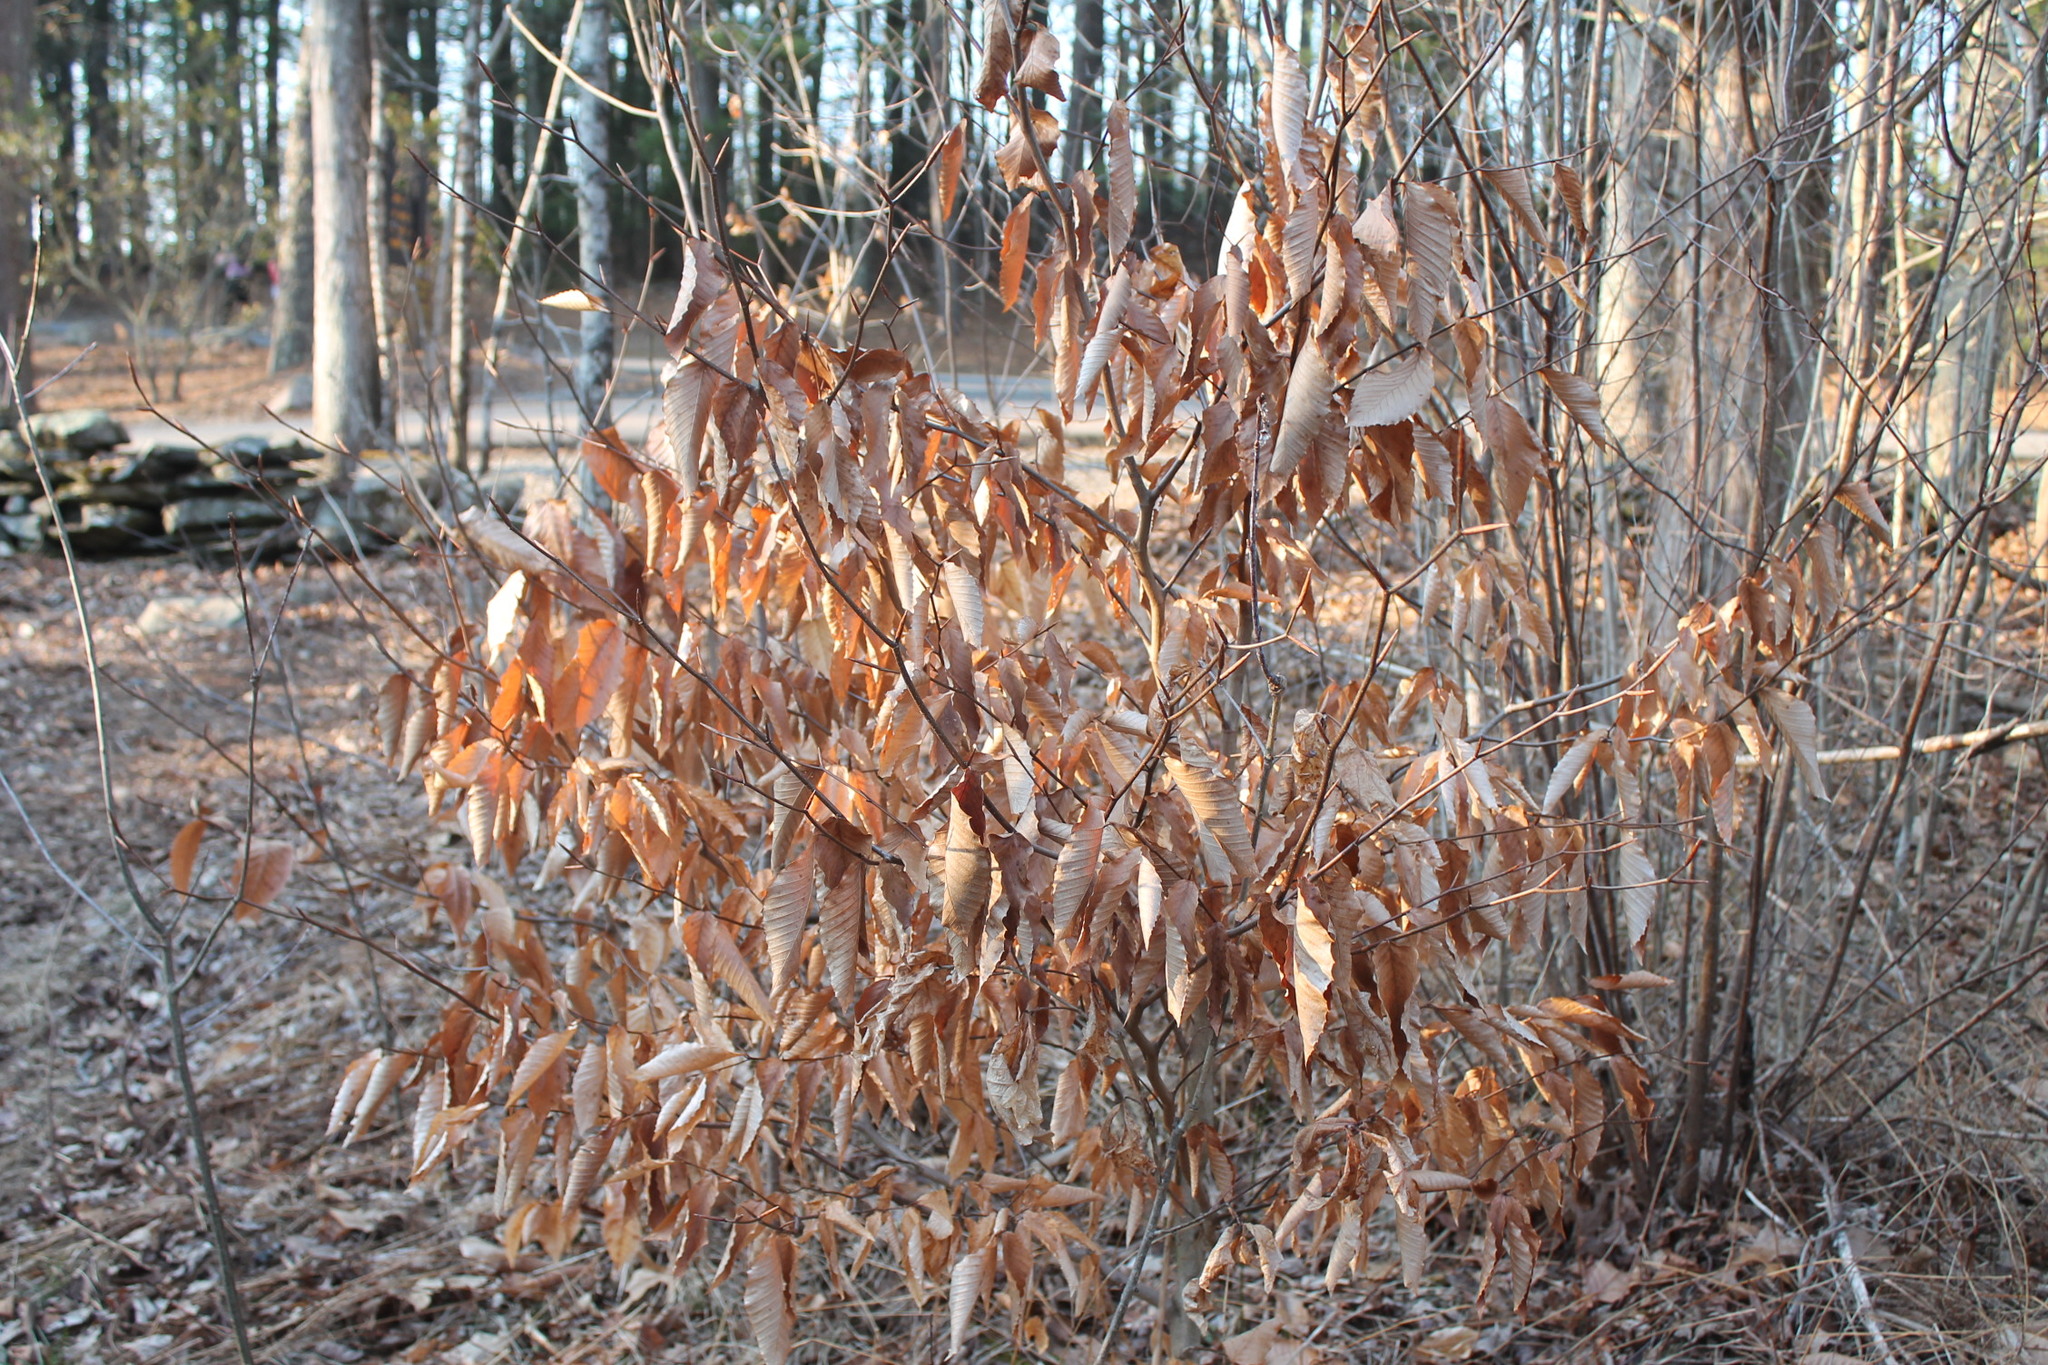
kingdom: Plantae
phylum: Tracheophyta
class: Magnoliopsida
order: Fagales
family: Fagaceae
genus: Fagus
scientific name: Fagus grandifolia
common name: American beech
